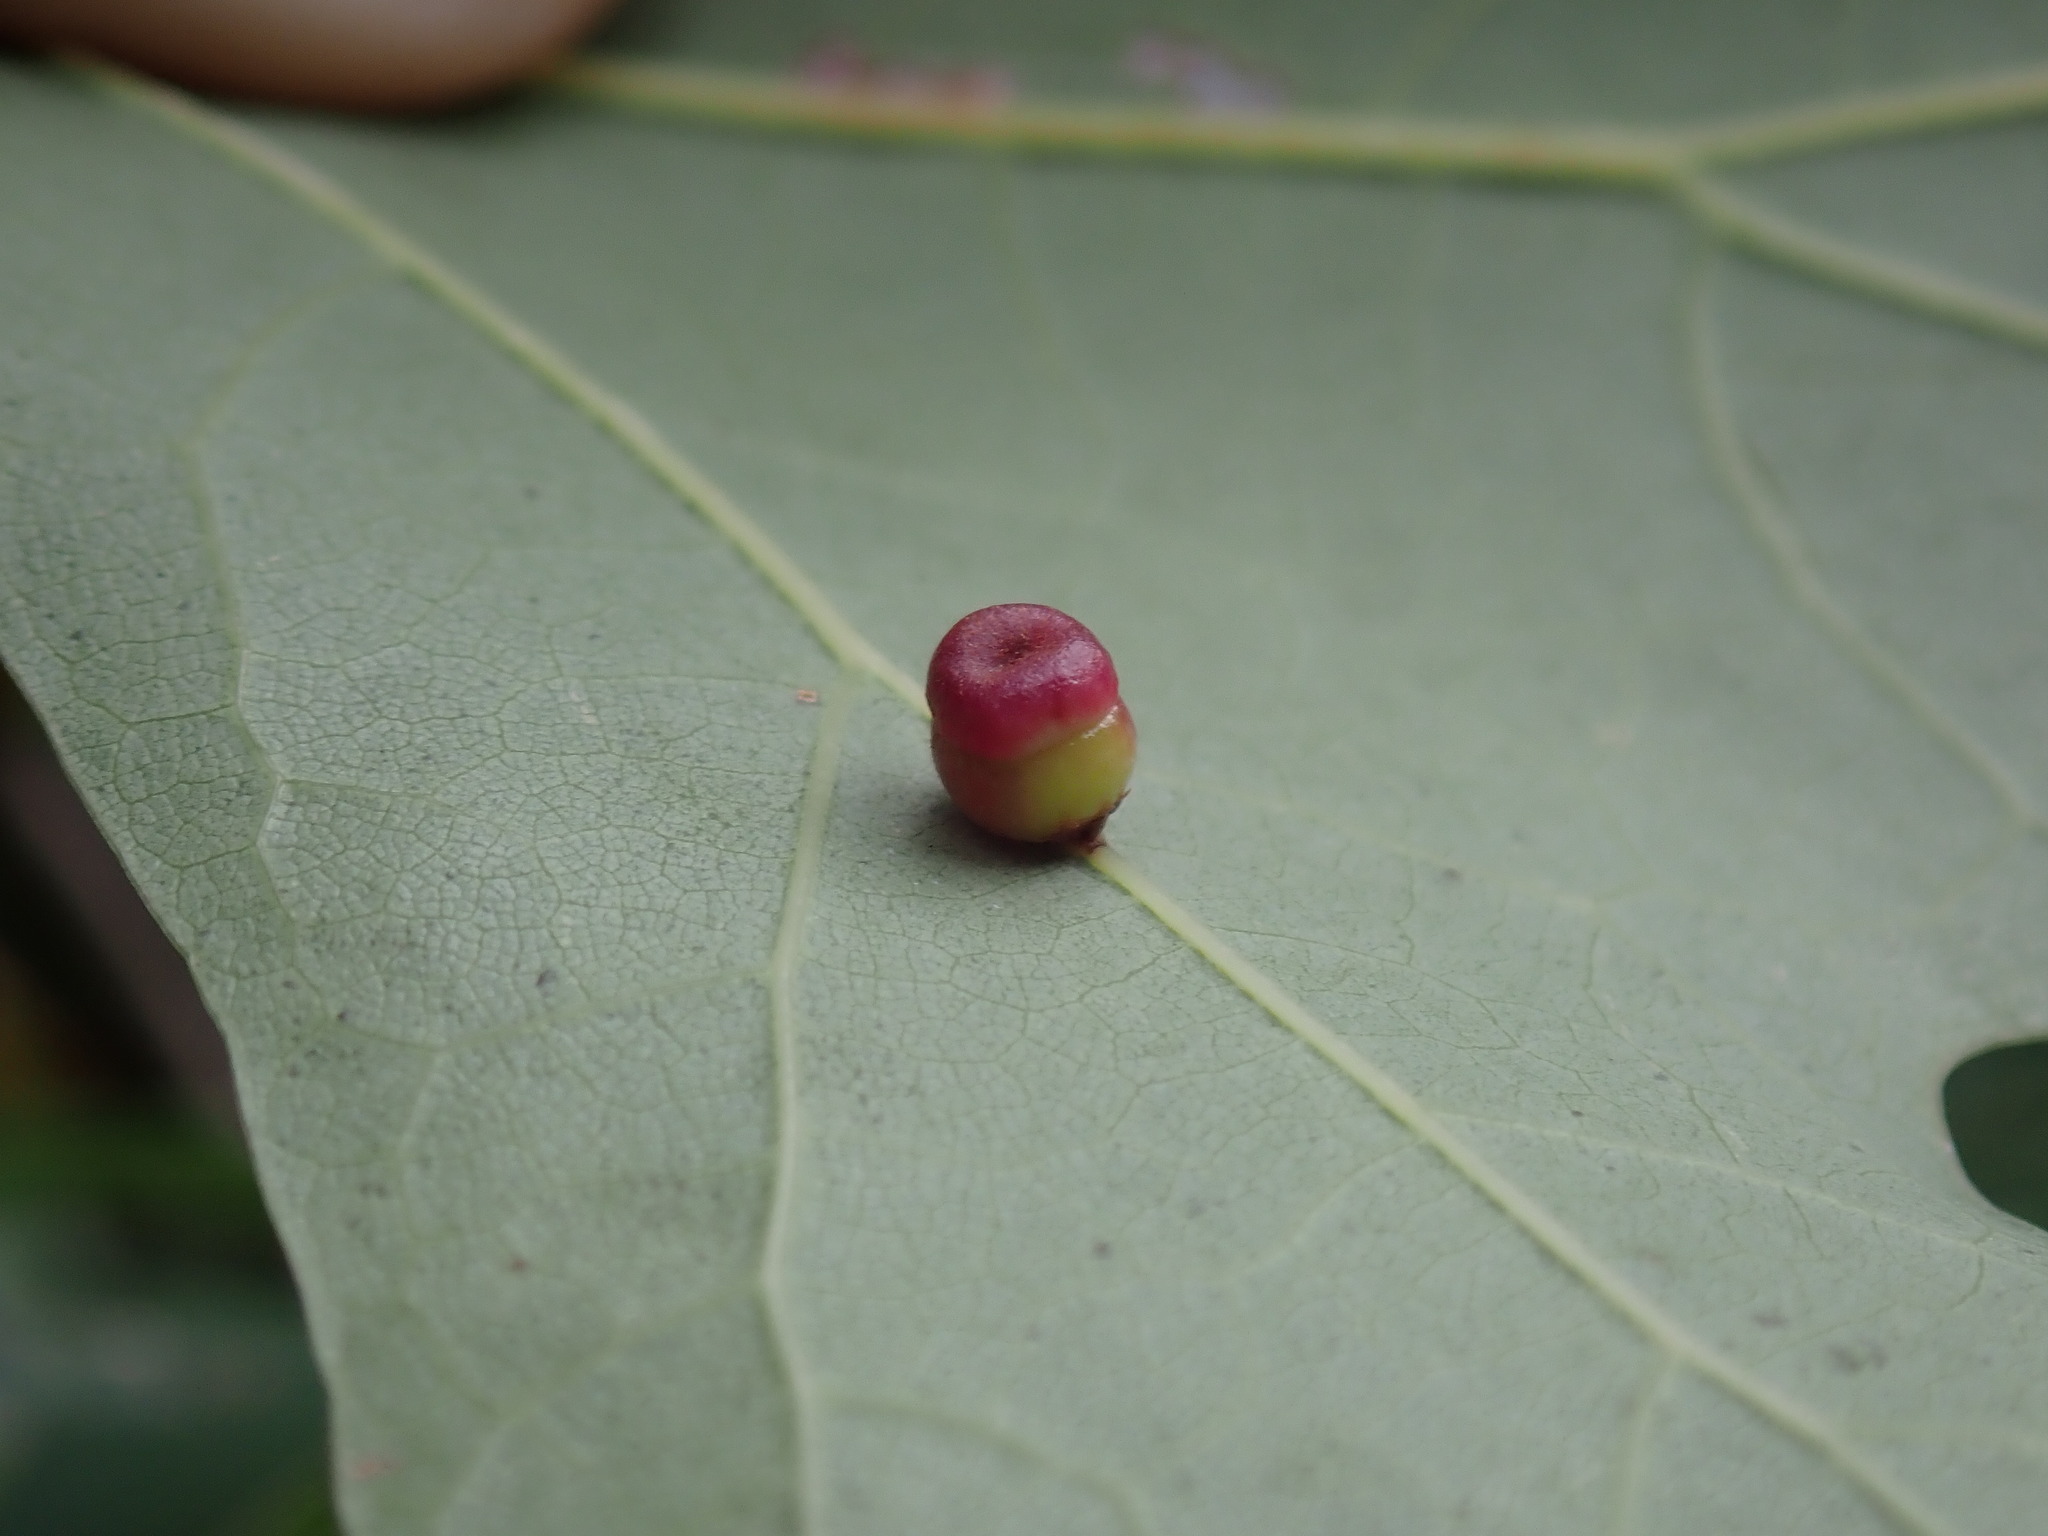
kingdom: Animalia
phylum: Arthropoda
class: Insecta
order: Hymenoptera
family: Cynipidae
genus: Kokkocynips
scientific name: Kokkocynips rileyi
